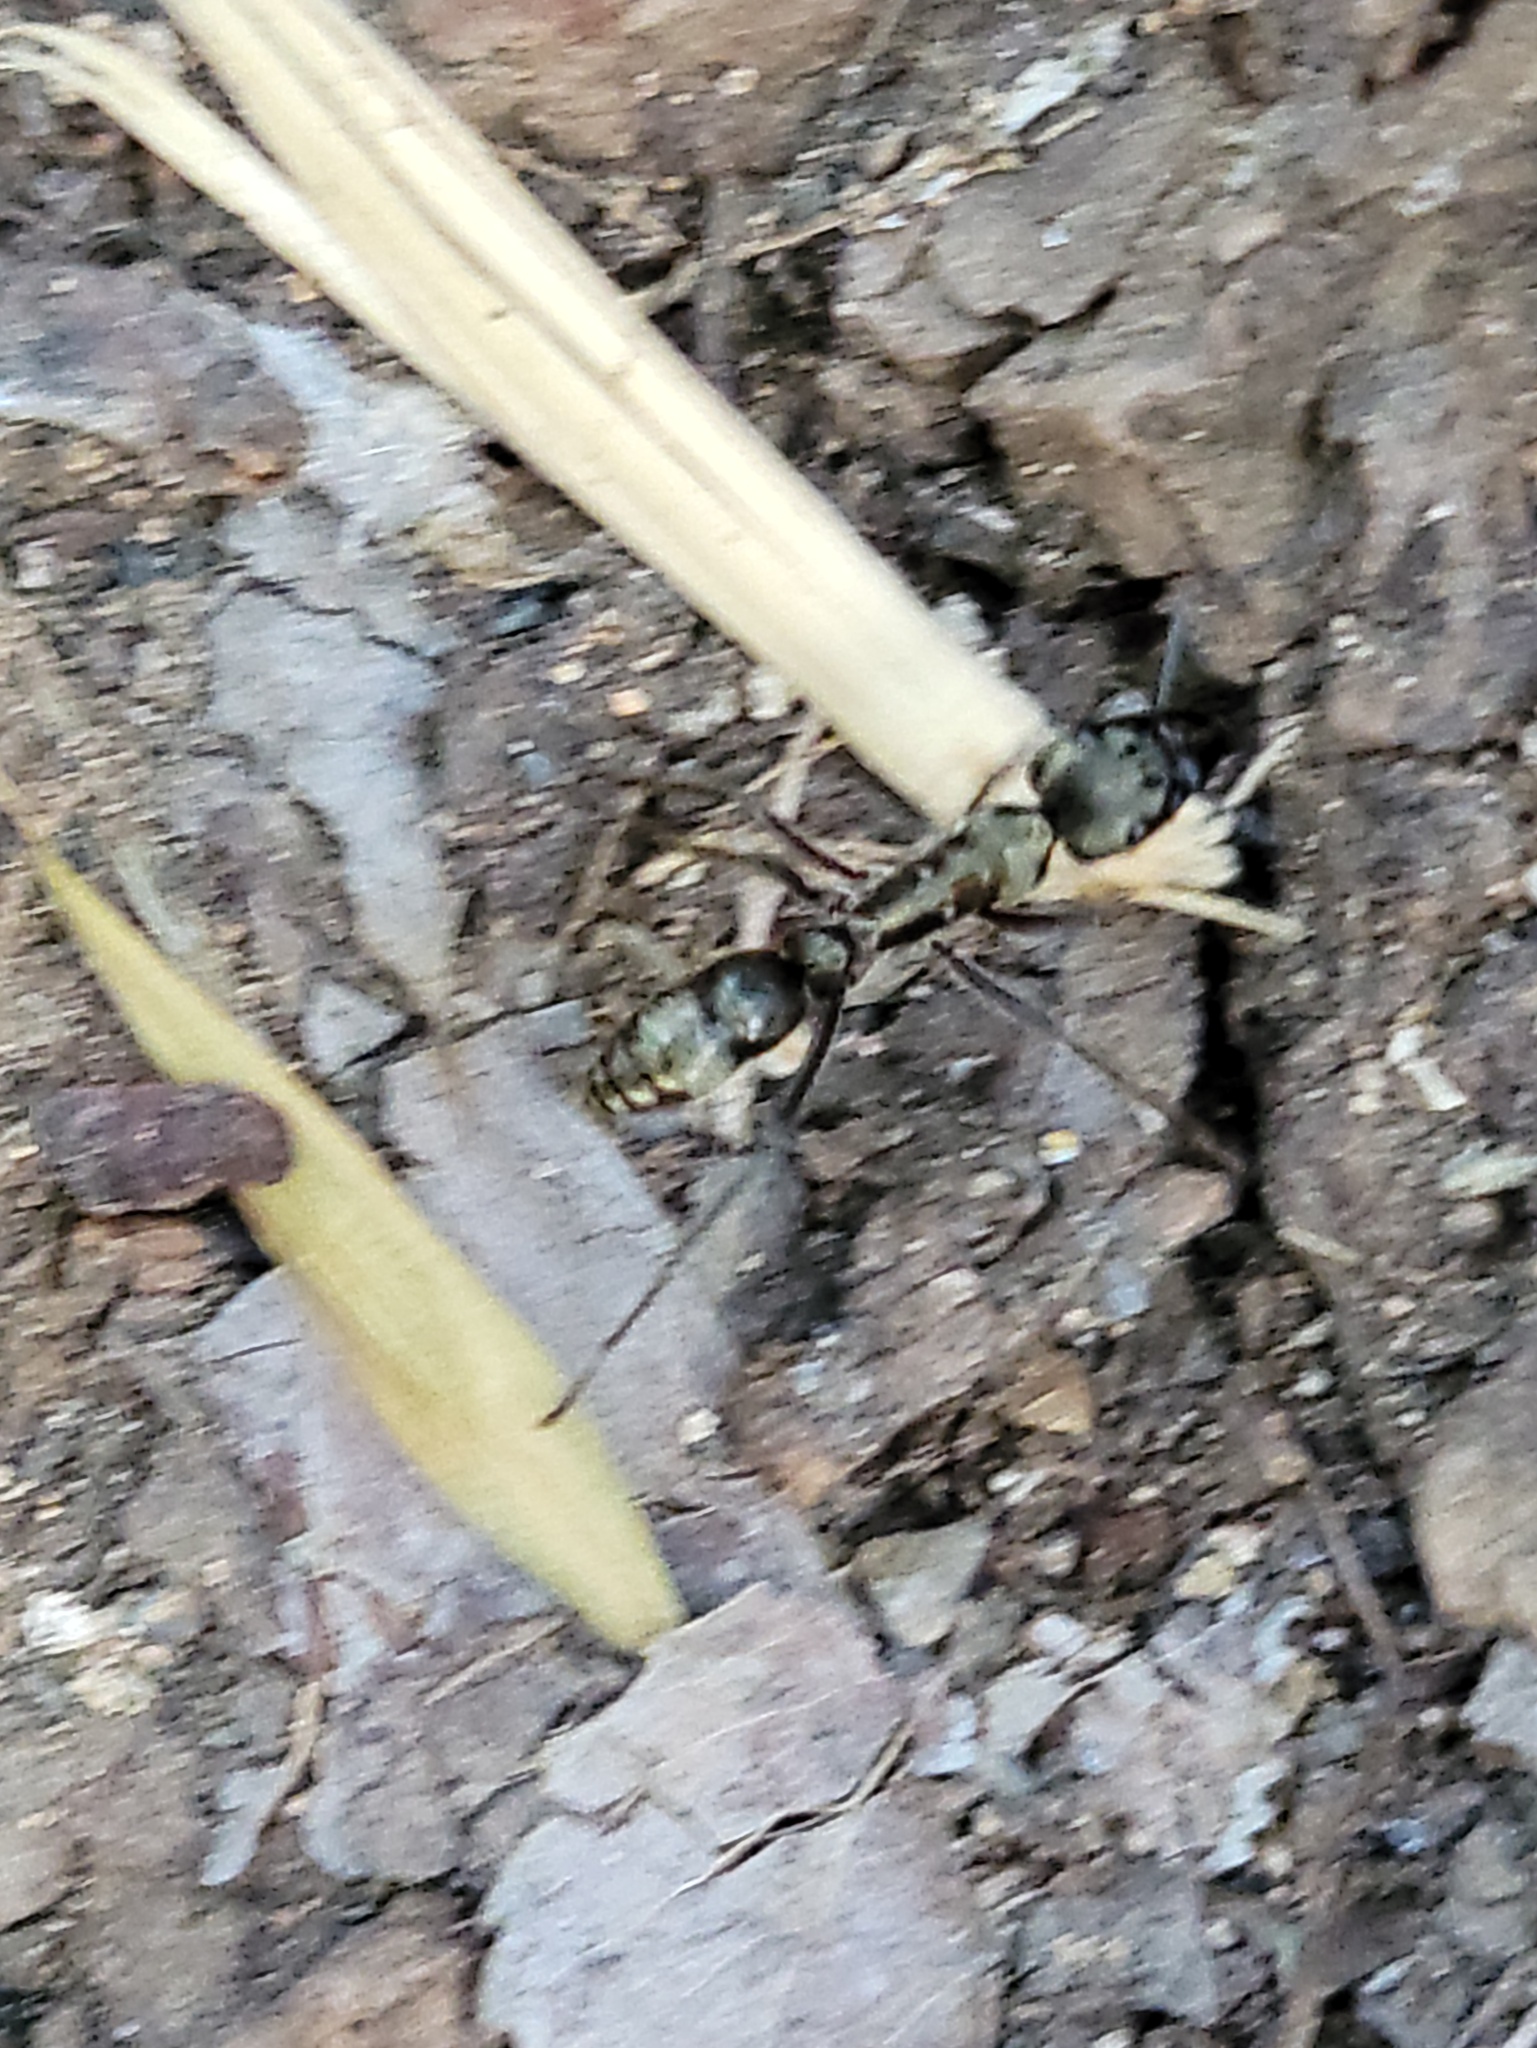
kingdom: Animalia
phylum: Arthropoda
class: Insecta
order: Hymenoptera
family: Formicidae
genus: Pachycondyla
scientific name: Pachycondyla villosa
